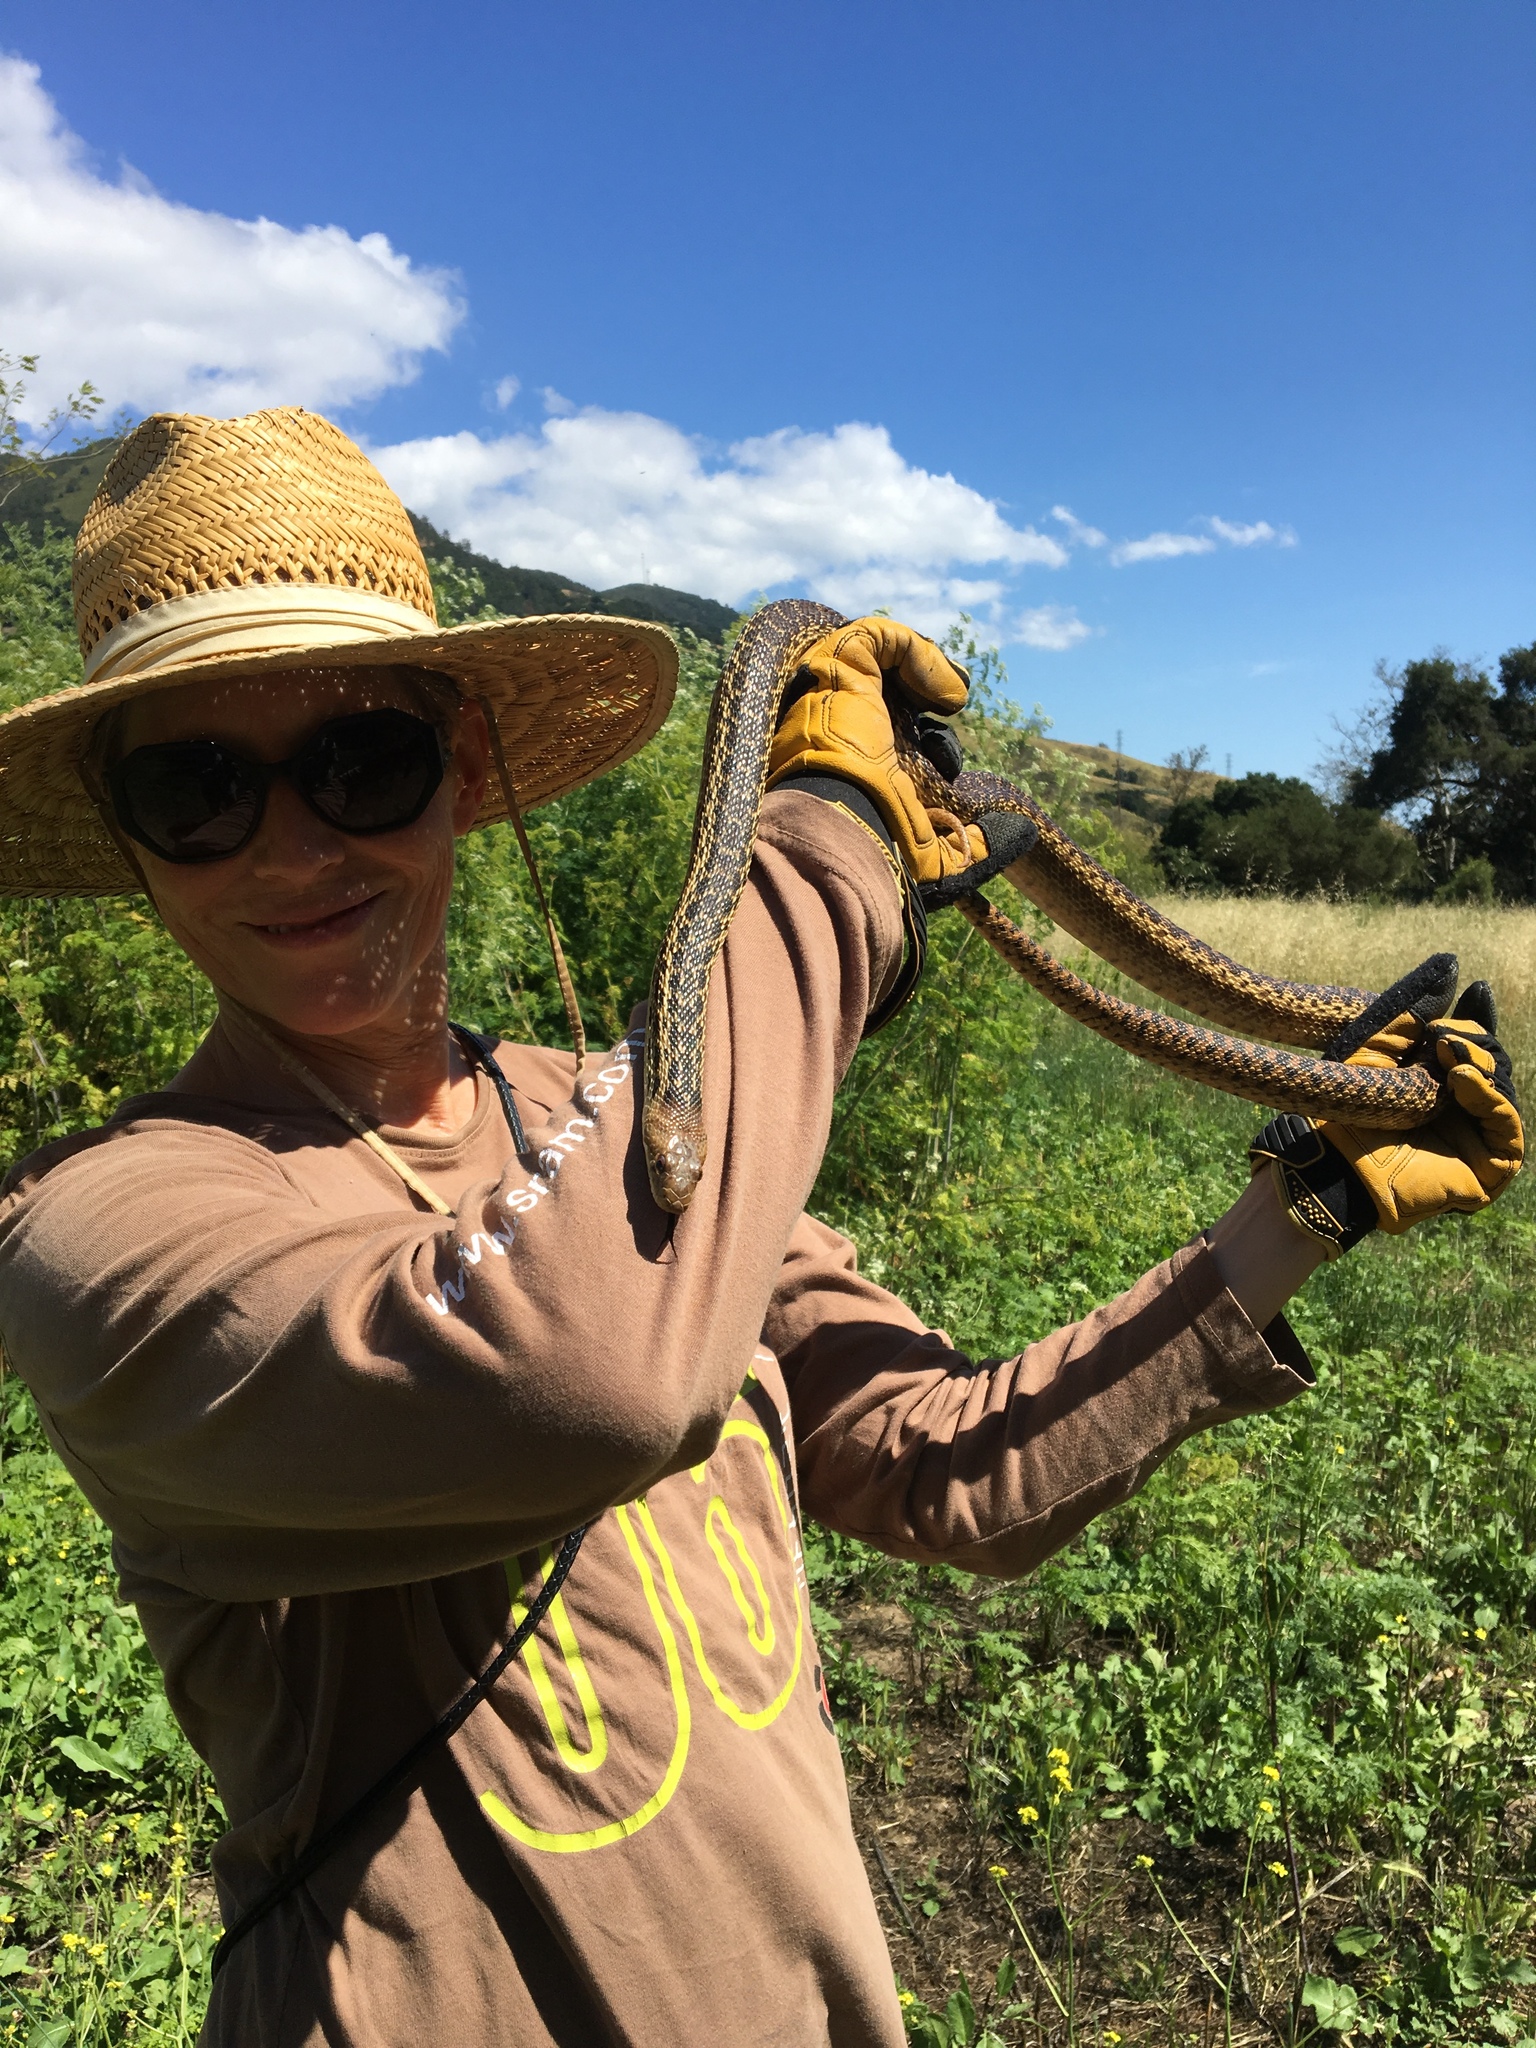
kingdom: Animalia
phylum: Chordata
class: Squamata
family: Colubridae
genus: Pituophis
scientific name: Pituophis catenifer
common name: Gopher snake
